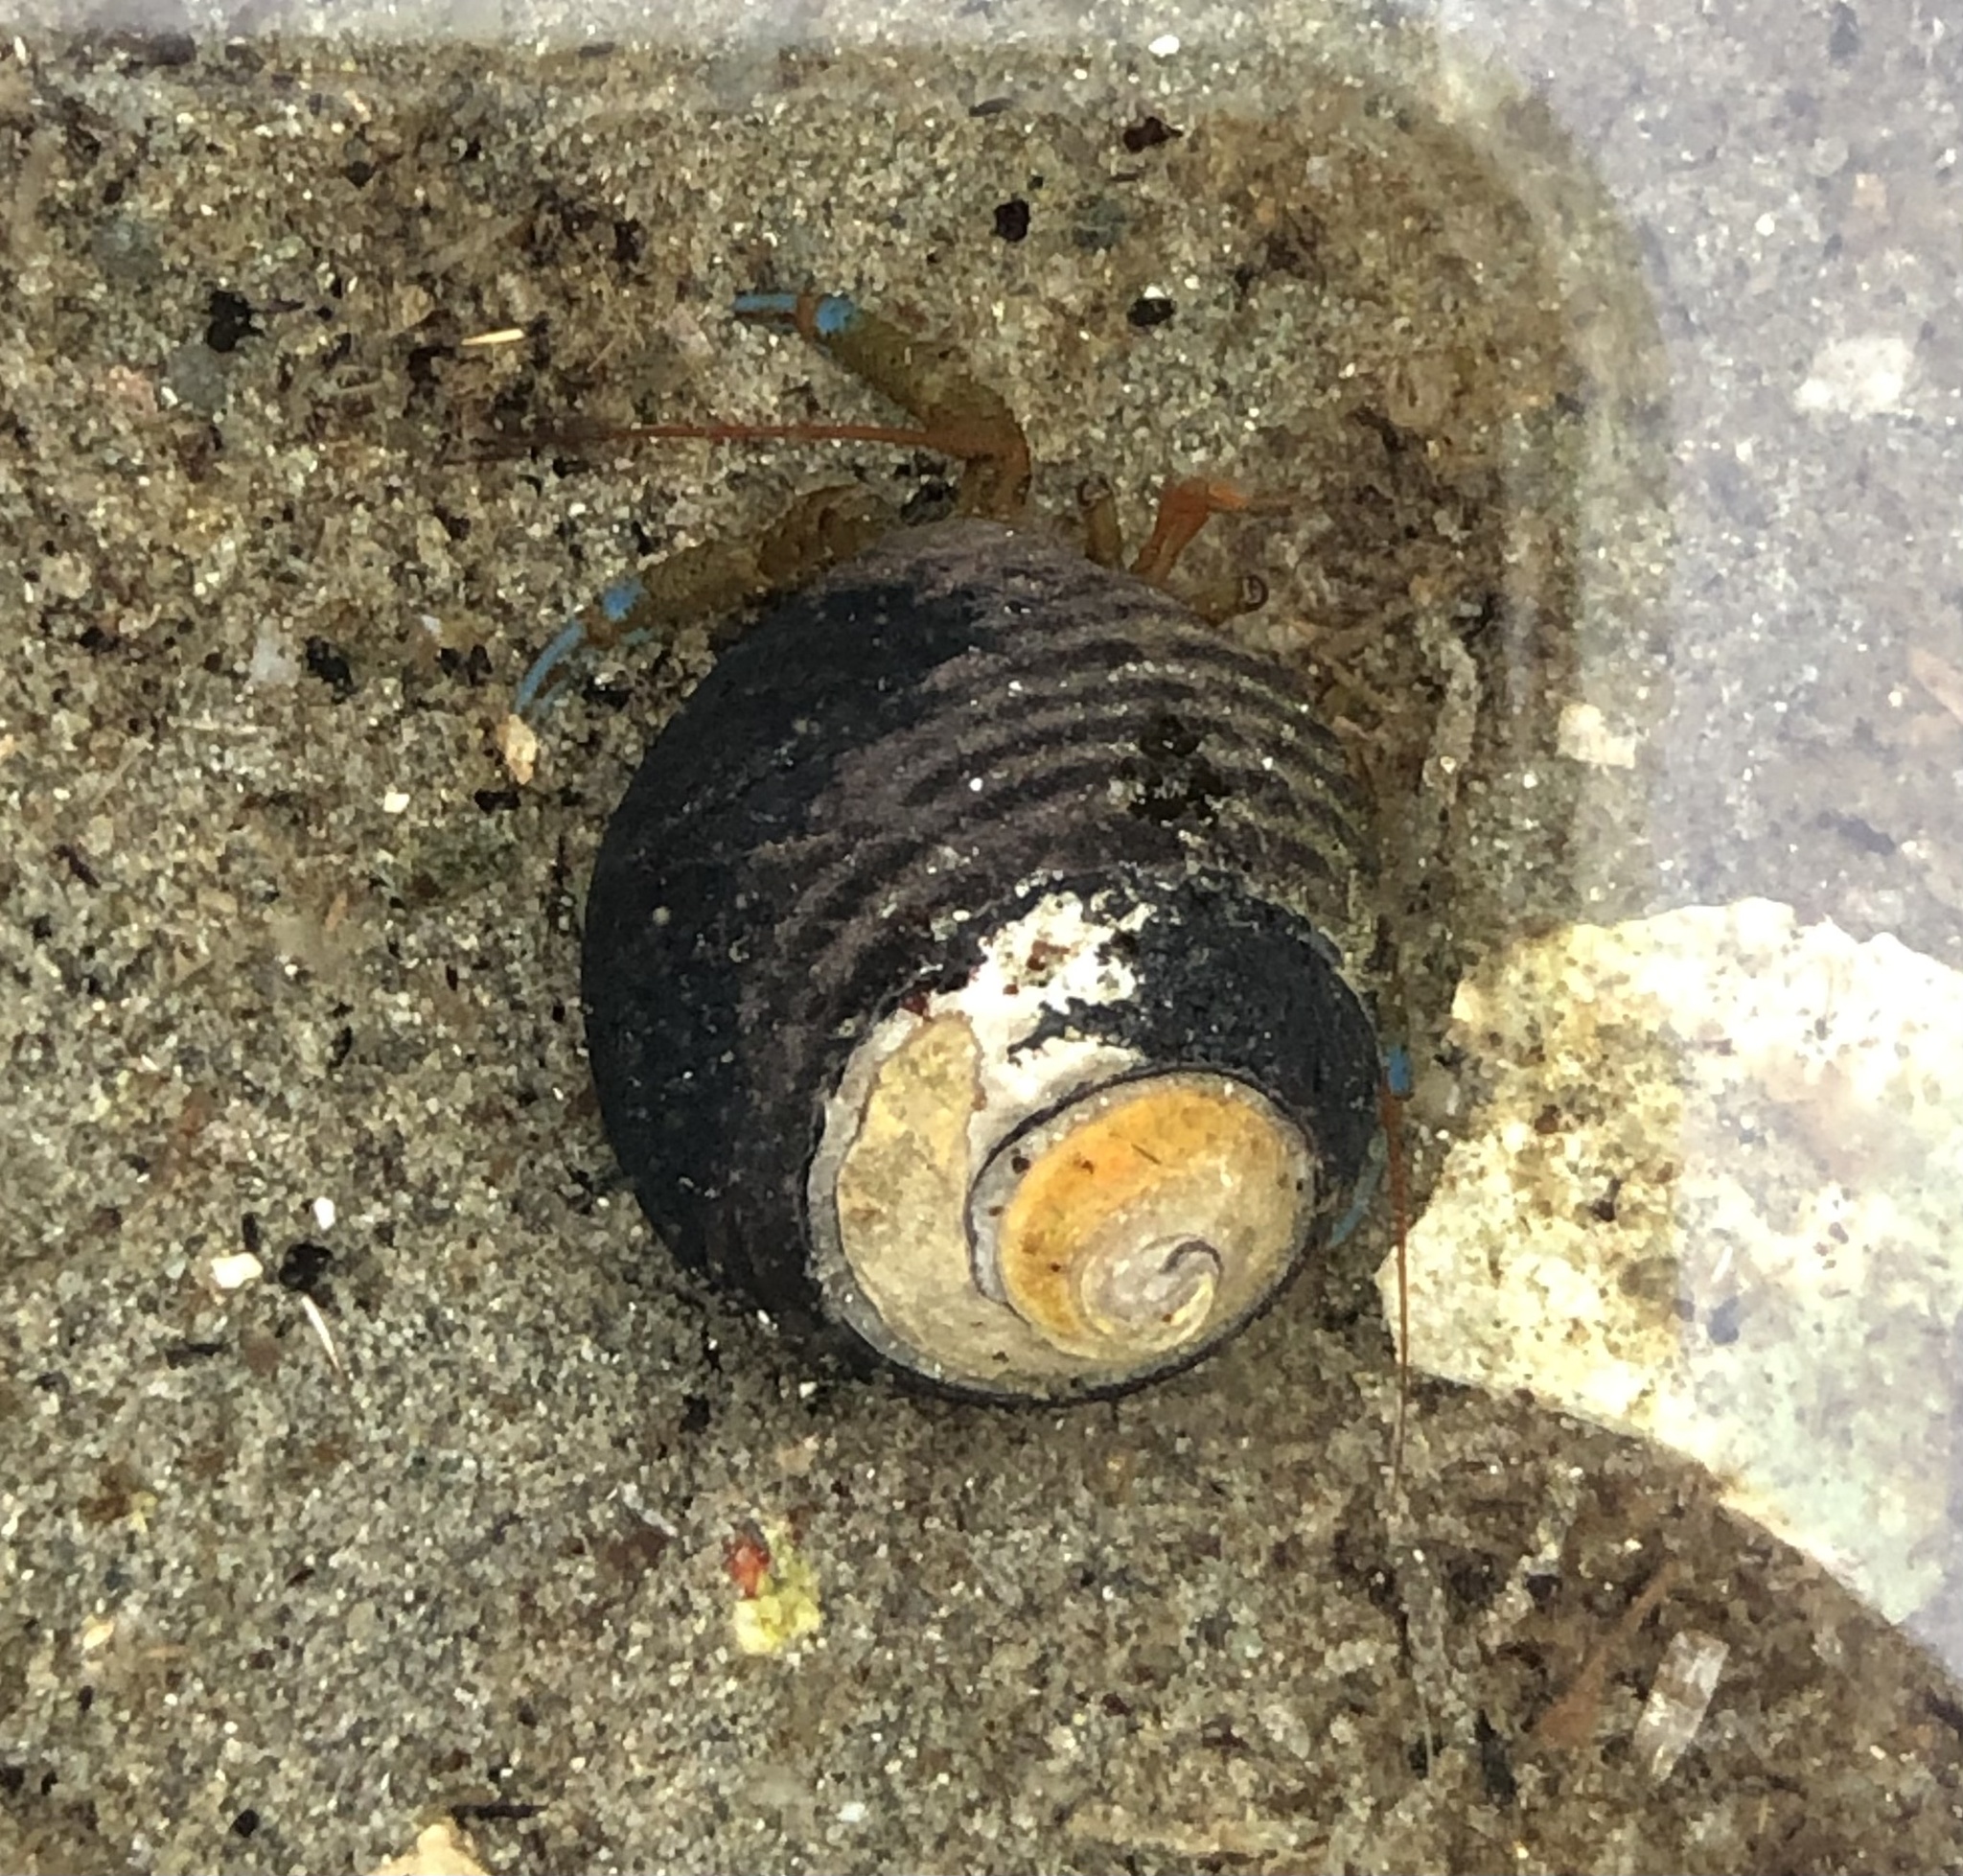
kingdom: Animalia
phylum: Arthropoda
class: Malacostraca
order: Decapoda
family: Paguridae
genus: Pagurus
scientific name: Pagurus samuelis
